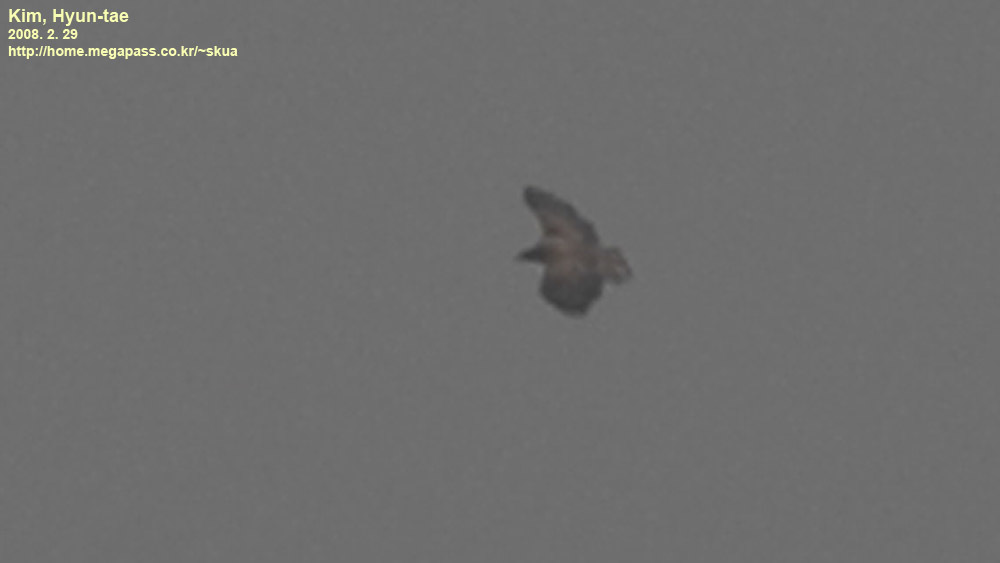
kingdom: Animalia
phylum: Chordata
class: Aves
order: Accipitriformes
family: Accipitridae
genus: Haliaeetus
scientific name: Haliaeetus albicilla
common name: White-tailed eagle
